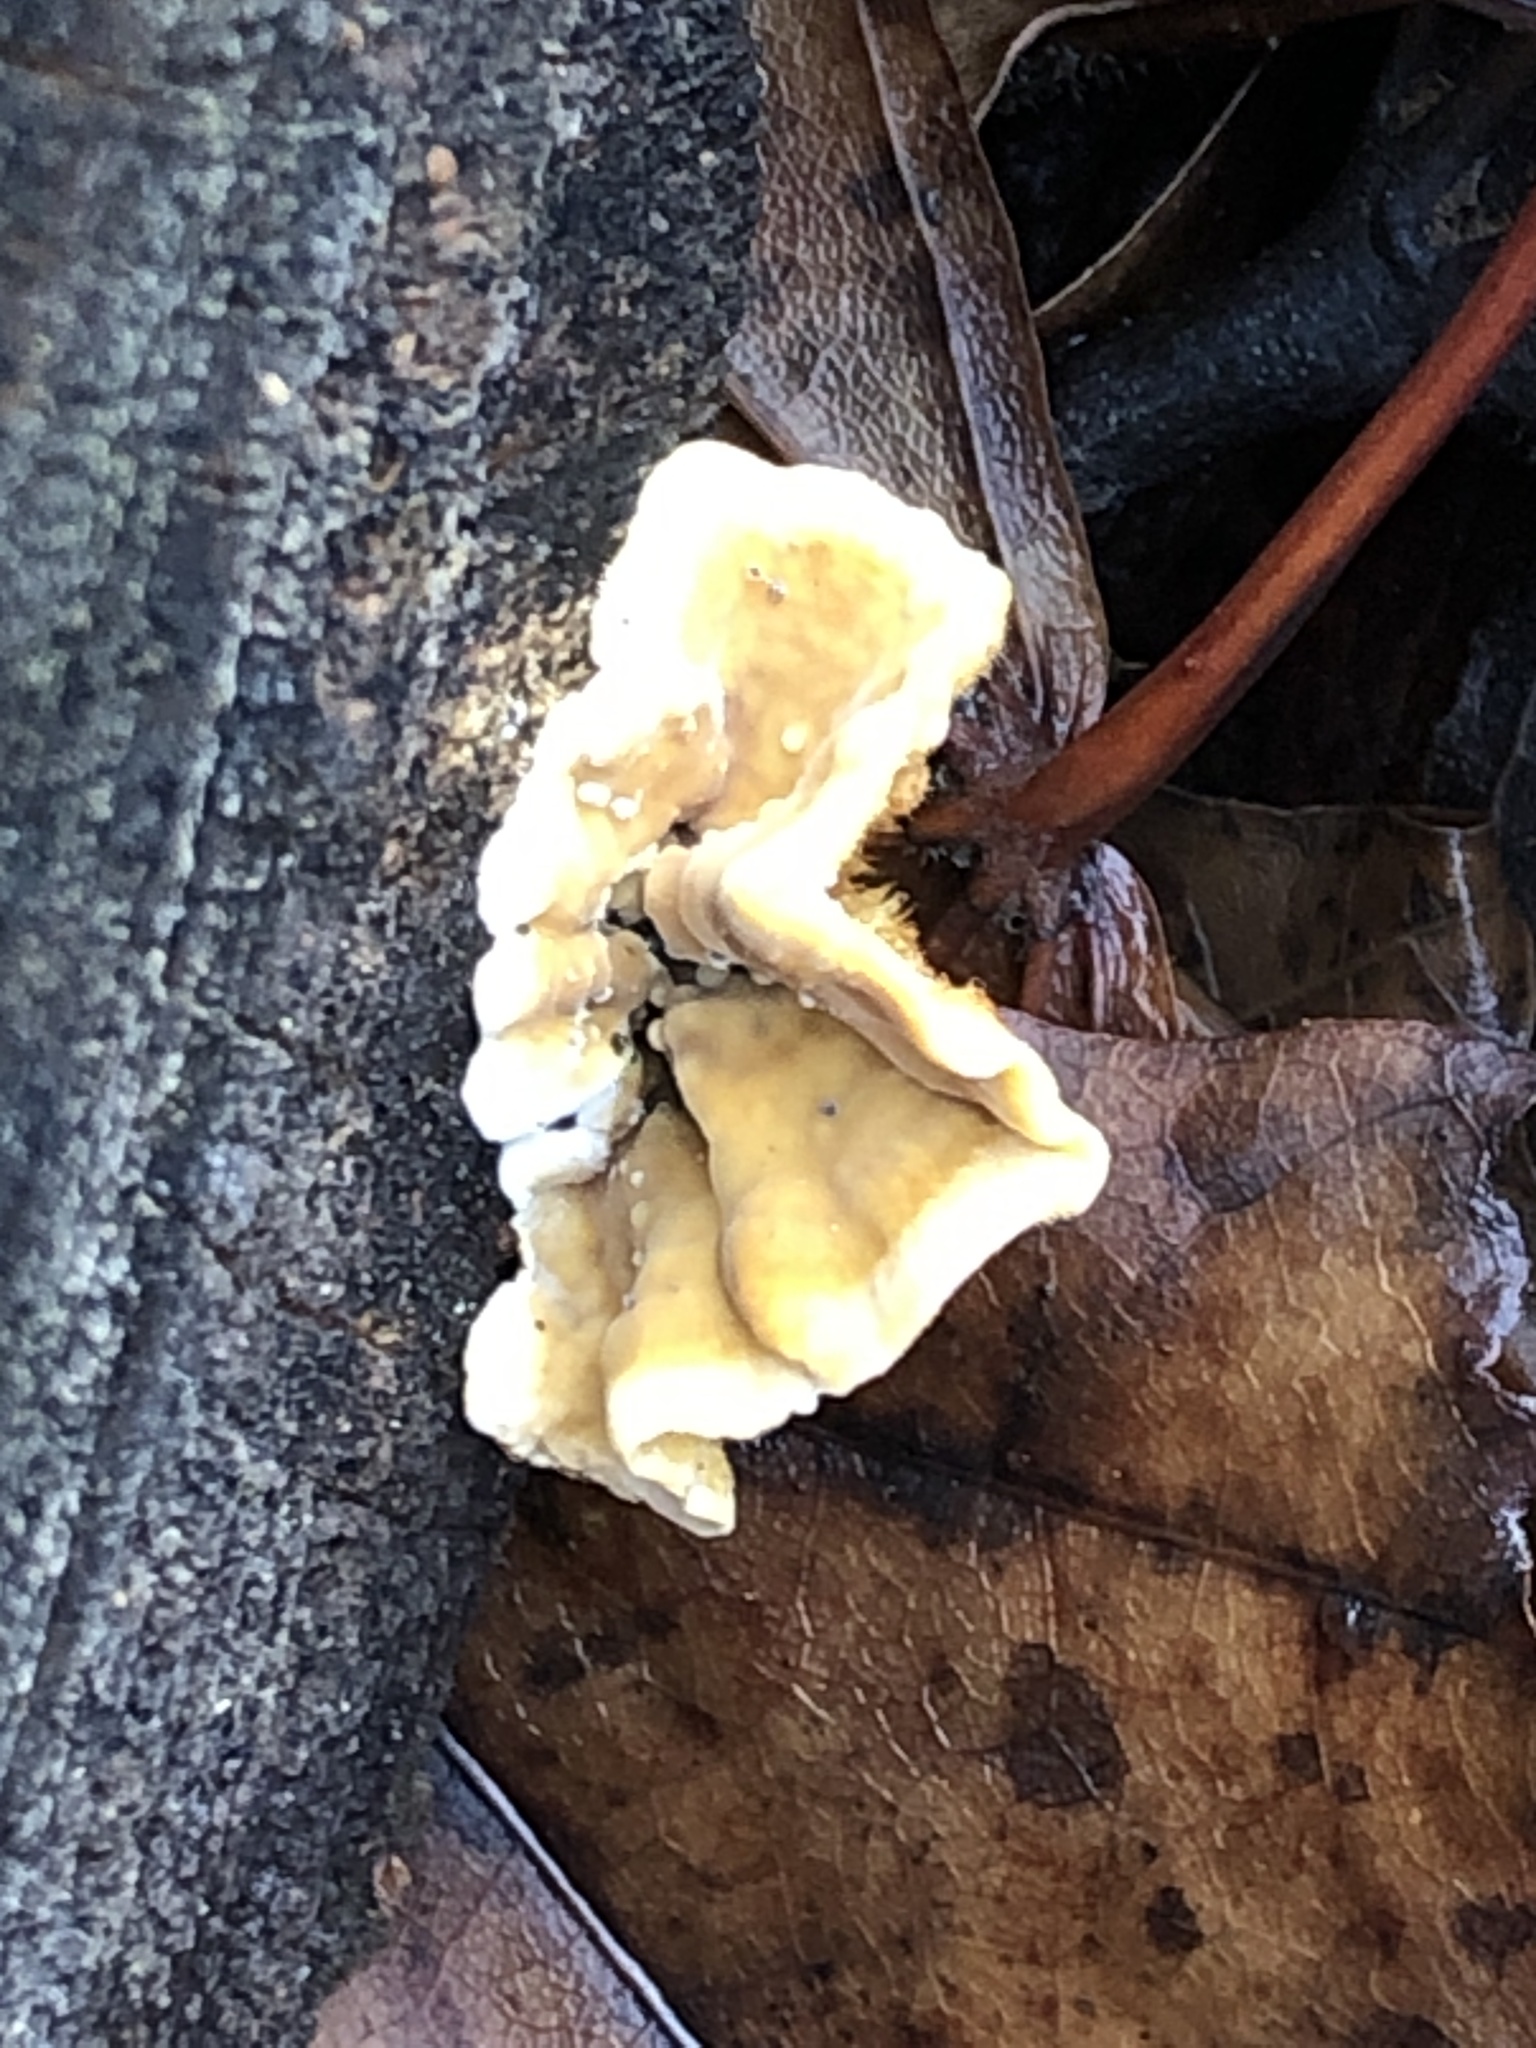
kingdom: Fungi
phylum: Basidiomycota
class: Agaricomycetes
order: Russulales
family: Stereaceae
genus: Stereum
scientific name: Stereum hirsutum
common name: Hairy curtain crust
